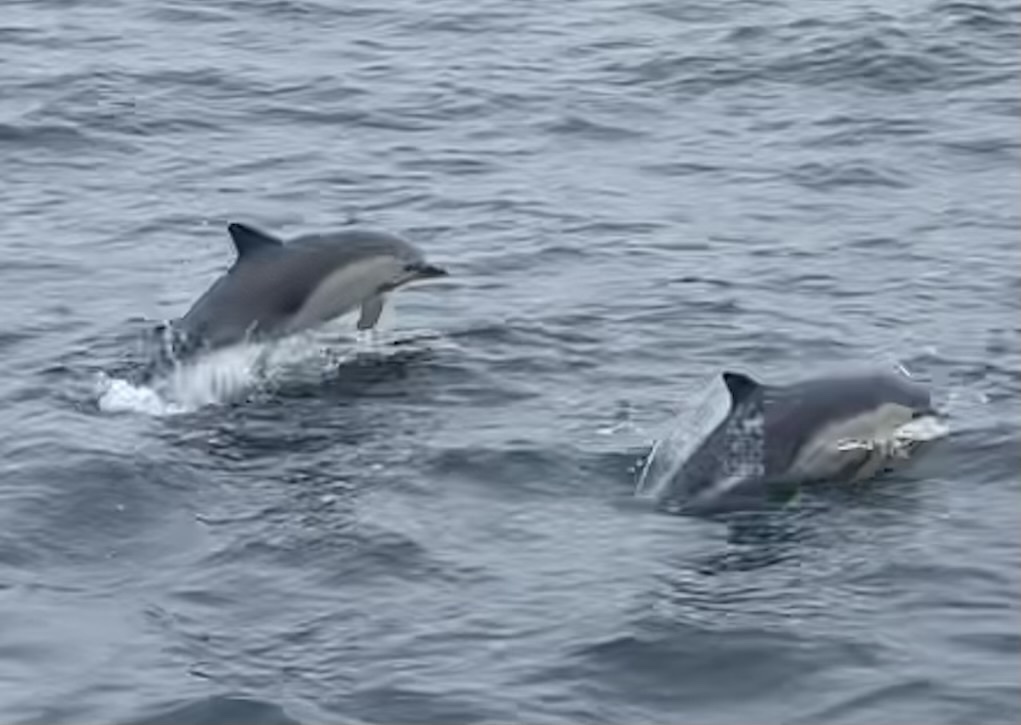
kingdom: Animalia
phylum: Chordata
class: Mammalia
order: Cetacea
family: Delphinidae
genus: Delphinus
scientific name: Delphinus delphis
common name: Common dolphin
